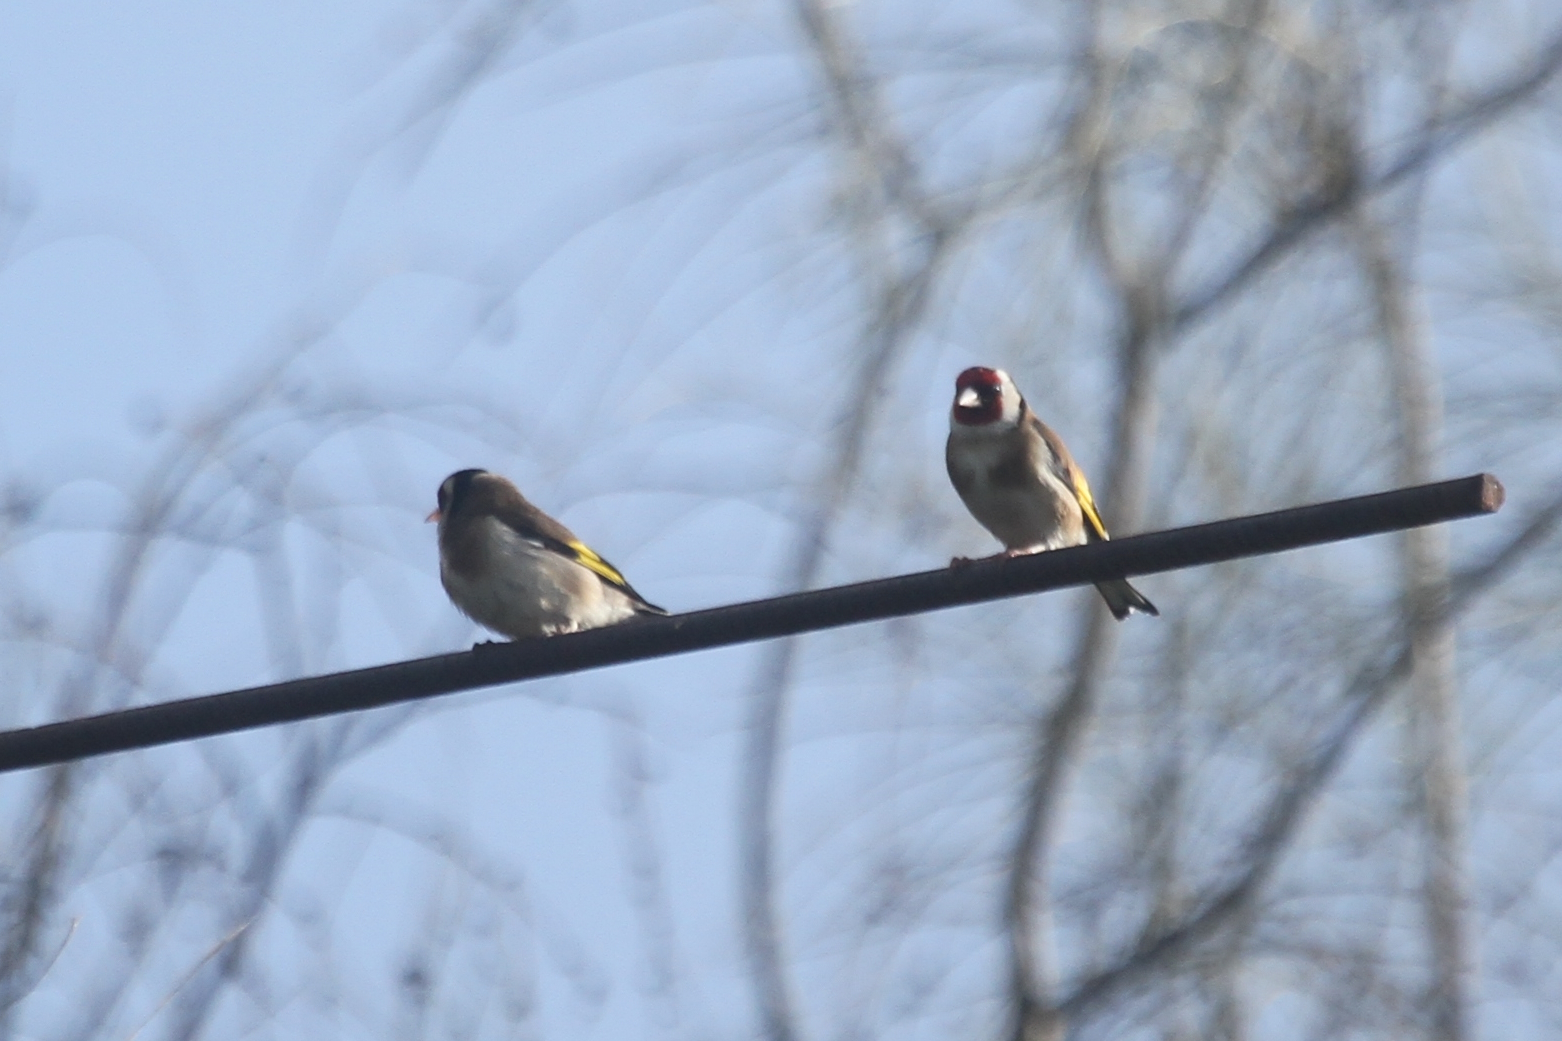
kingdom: Animalia
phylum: Chordata
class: Aves
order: Passeriformes
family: Fringillidae
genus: Carduelis
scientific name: Carduelis carduelis
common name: European goldfinch
